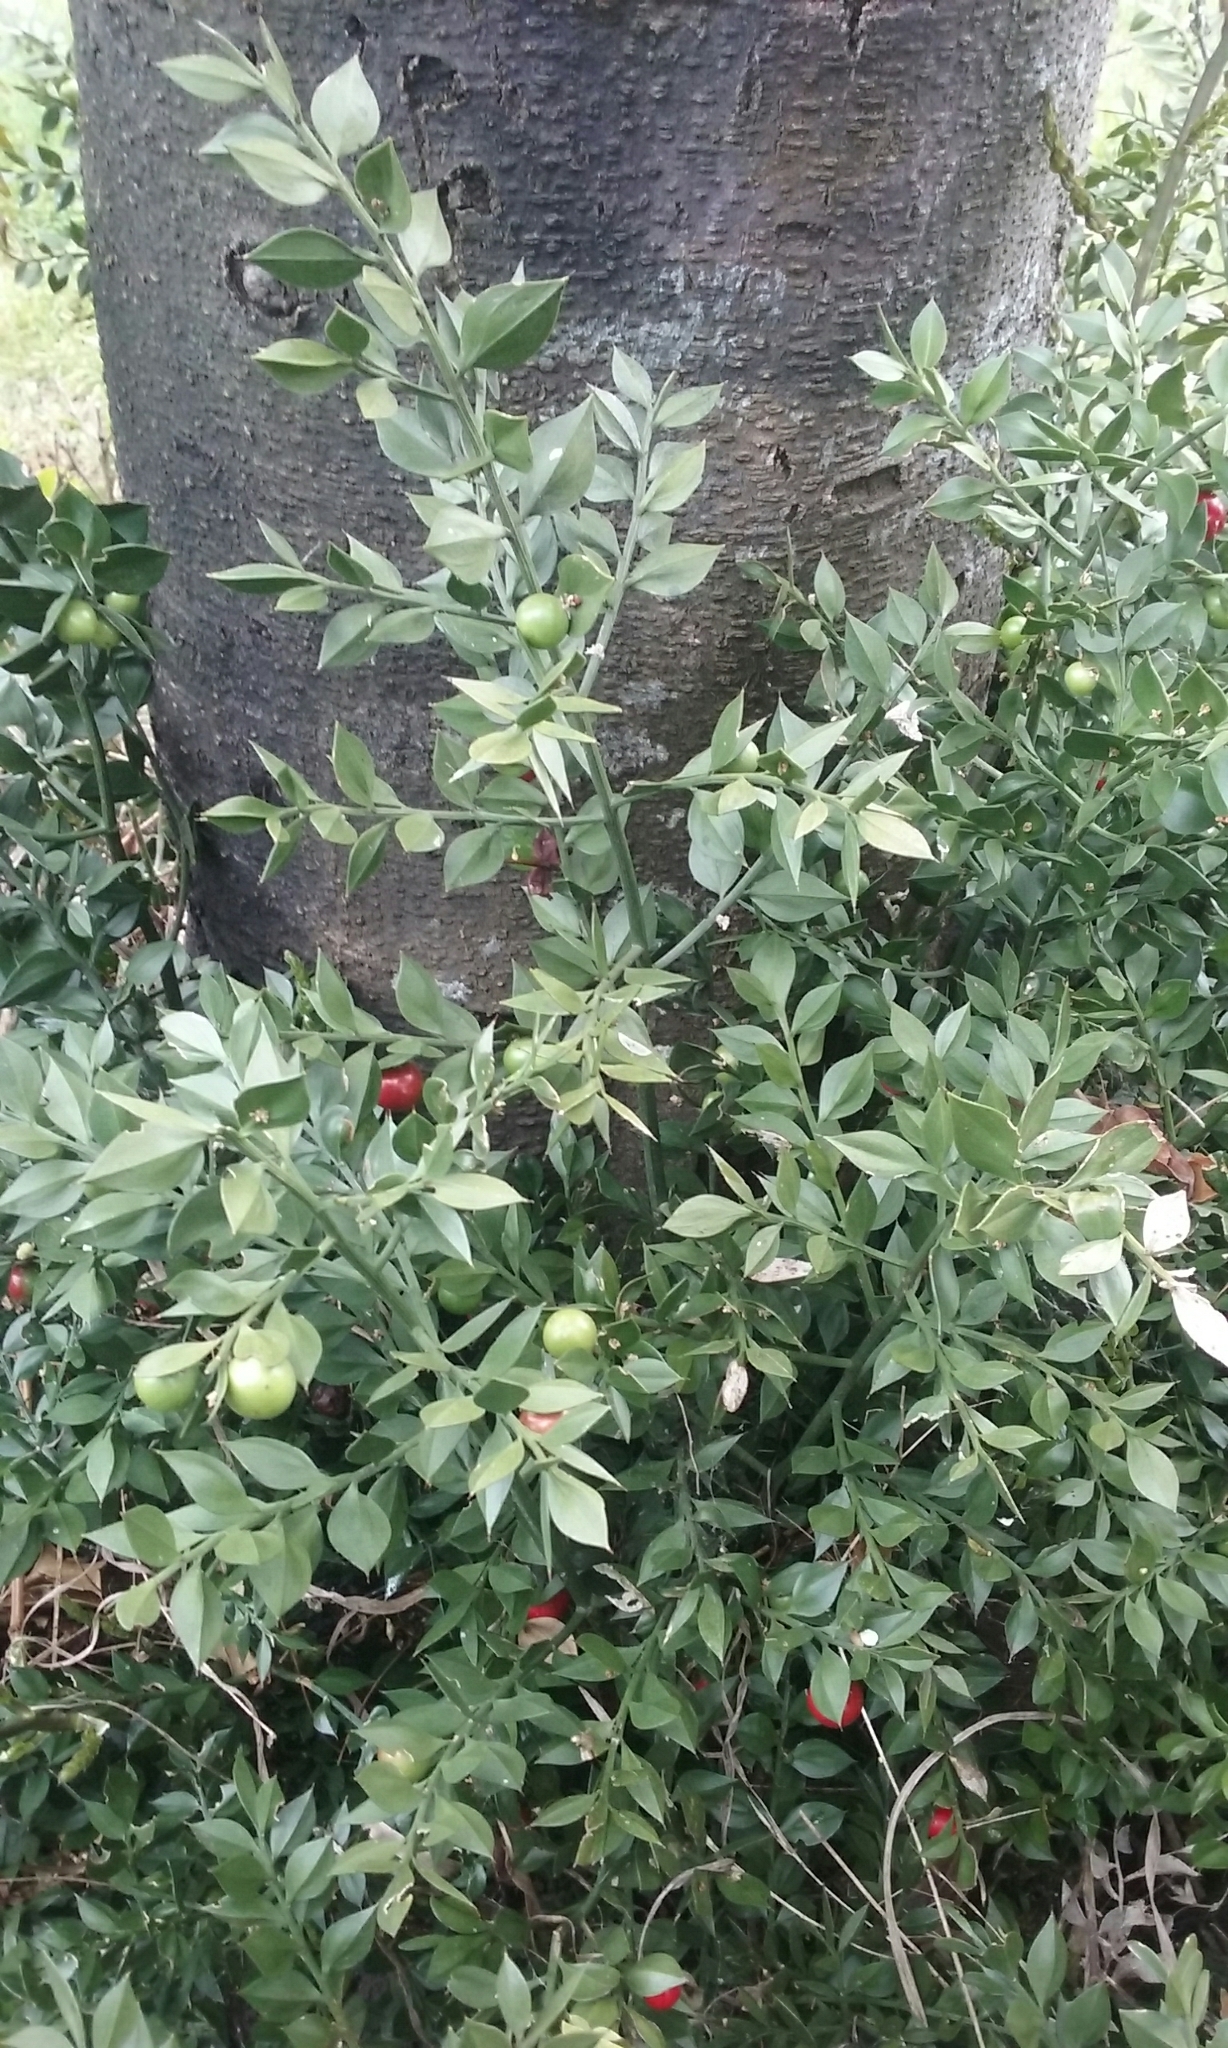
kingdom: Plantae
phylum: Tracheophyta
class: Liliopsida
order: Asparagales
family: Asparagaceae
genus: Ruscus
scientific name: Ruscus aculeatus
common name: Butcher's-broom
